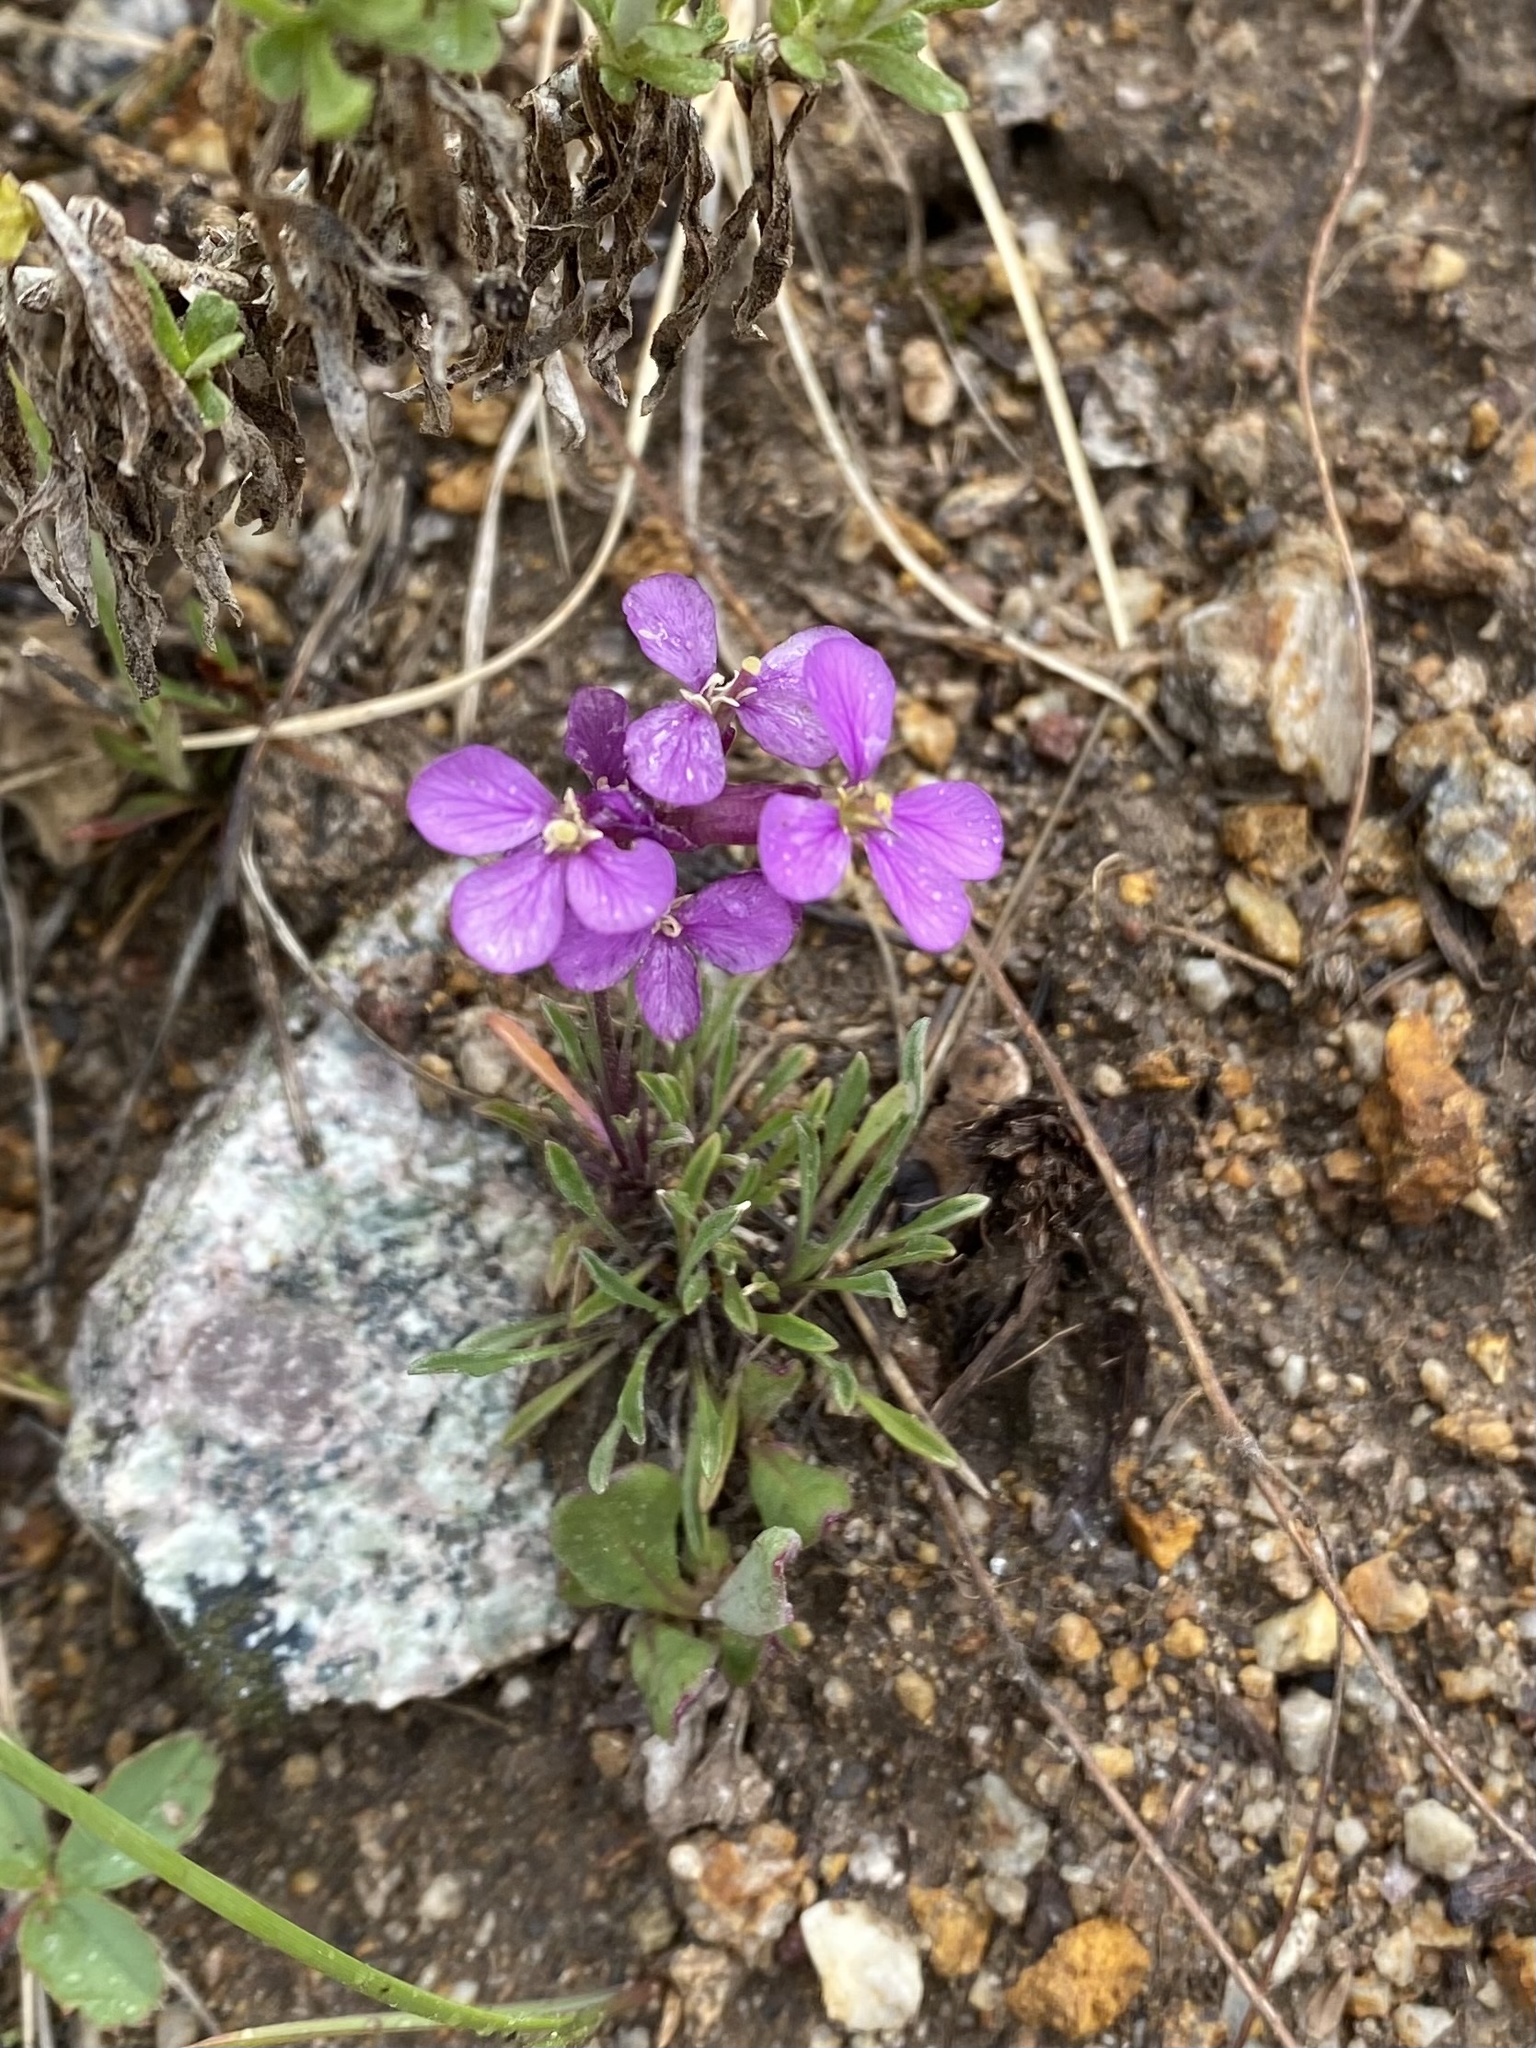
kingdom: Plantae
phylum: Tracheophyta
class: Magnoliopsida
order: Brassicales
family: Brassicaceae
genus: Erysimum
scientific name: Erysimum capitatum
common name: Western wallflower
